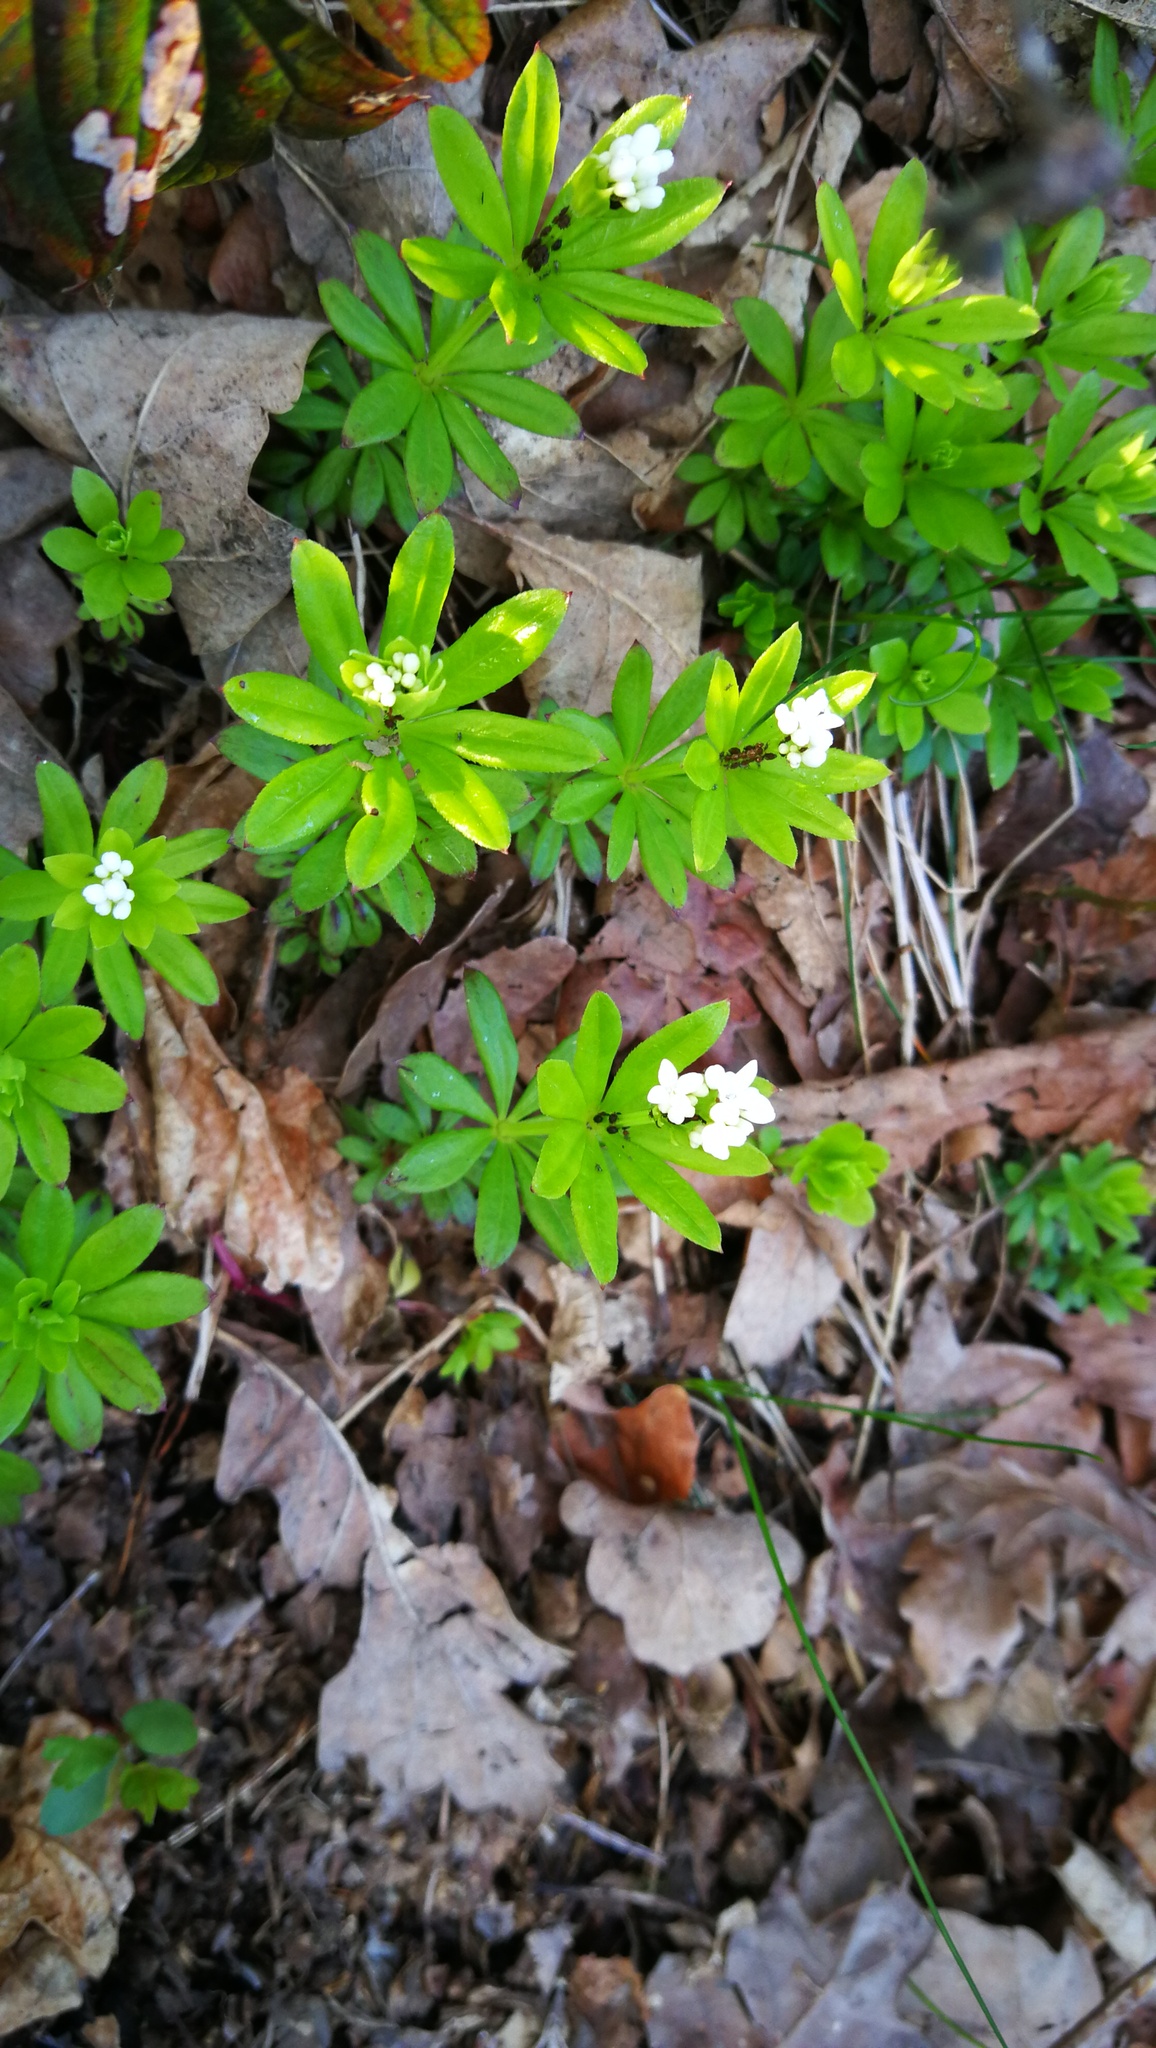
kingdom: Plantae
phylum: Tracheophyta
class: Magnoliopsida
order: Gentianales
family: Rubiaceae
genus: Galium
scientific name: Galium odoratum
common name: Sweet woodruff
